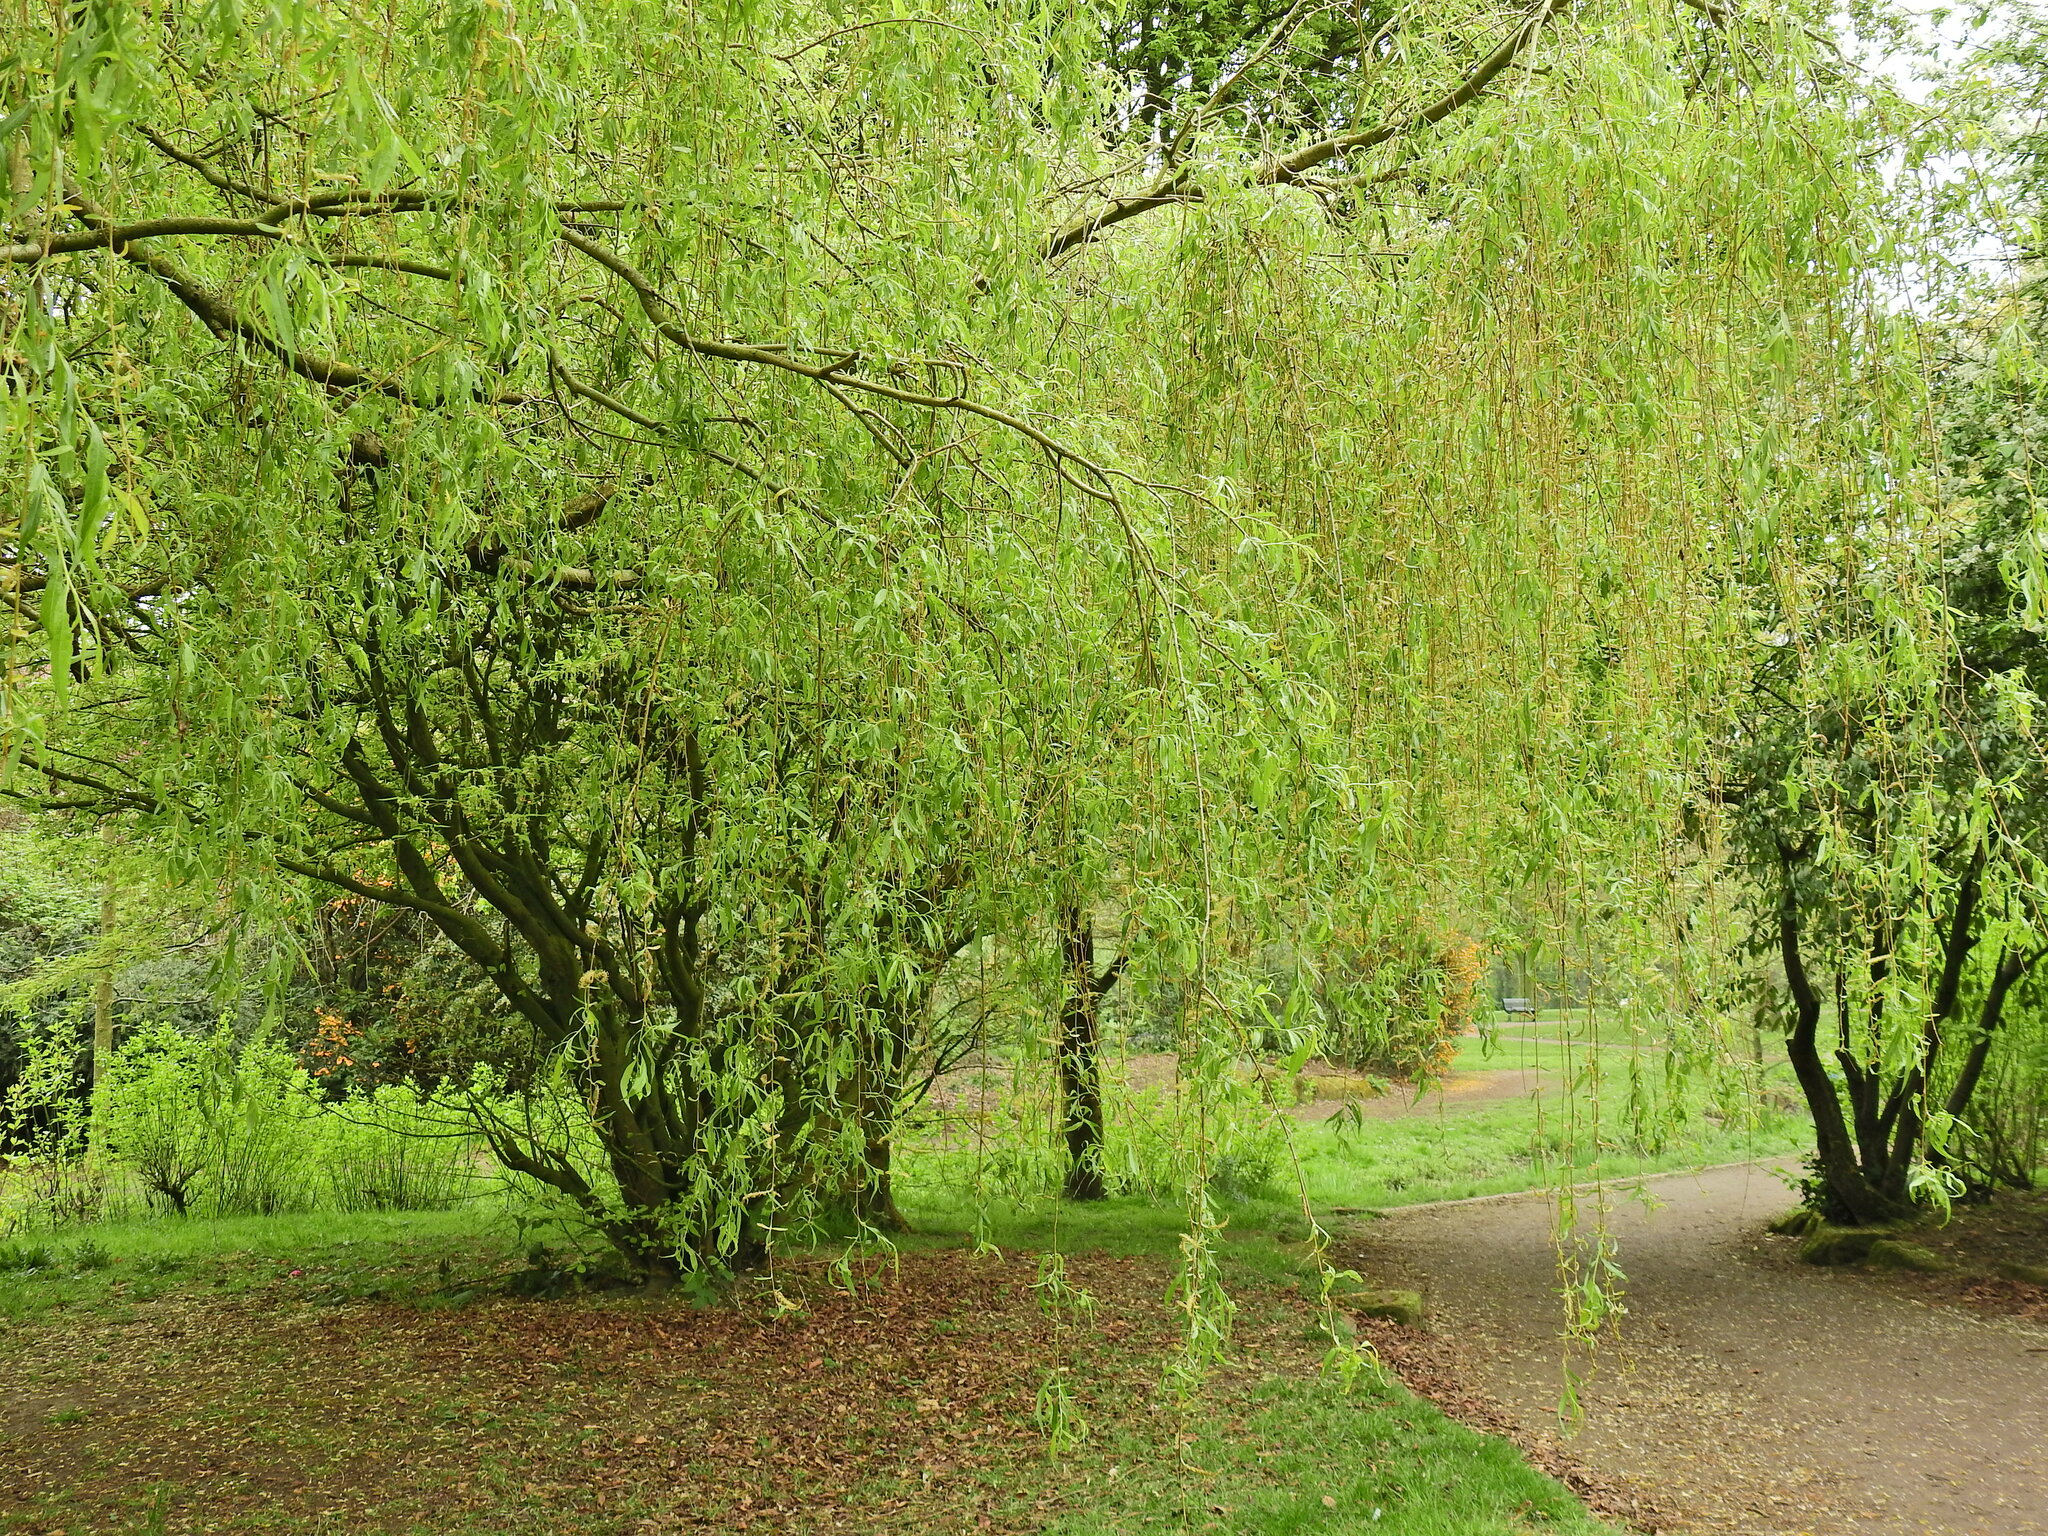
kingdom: Plantae
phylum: Tracheophyta
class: Magnoliopsida
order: Malpighiales
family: Salicaceae
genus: Salix
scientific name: Salix babylonica
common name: Weeping willow
